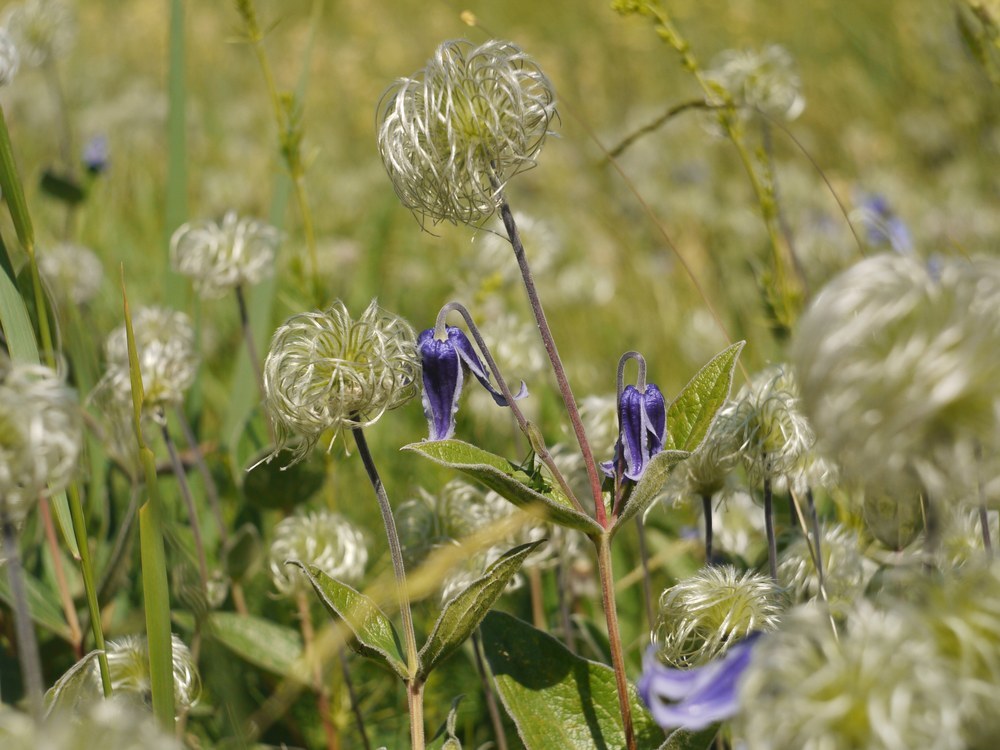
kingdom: Plantae
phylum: Tracheophyta
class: Magnoliopsida
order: Ranunculales
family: Ranunculaceae
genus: Clematis
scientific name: Clematis integrifolia
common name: Solitary clematis
